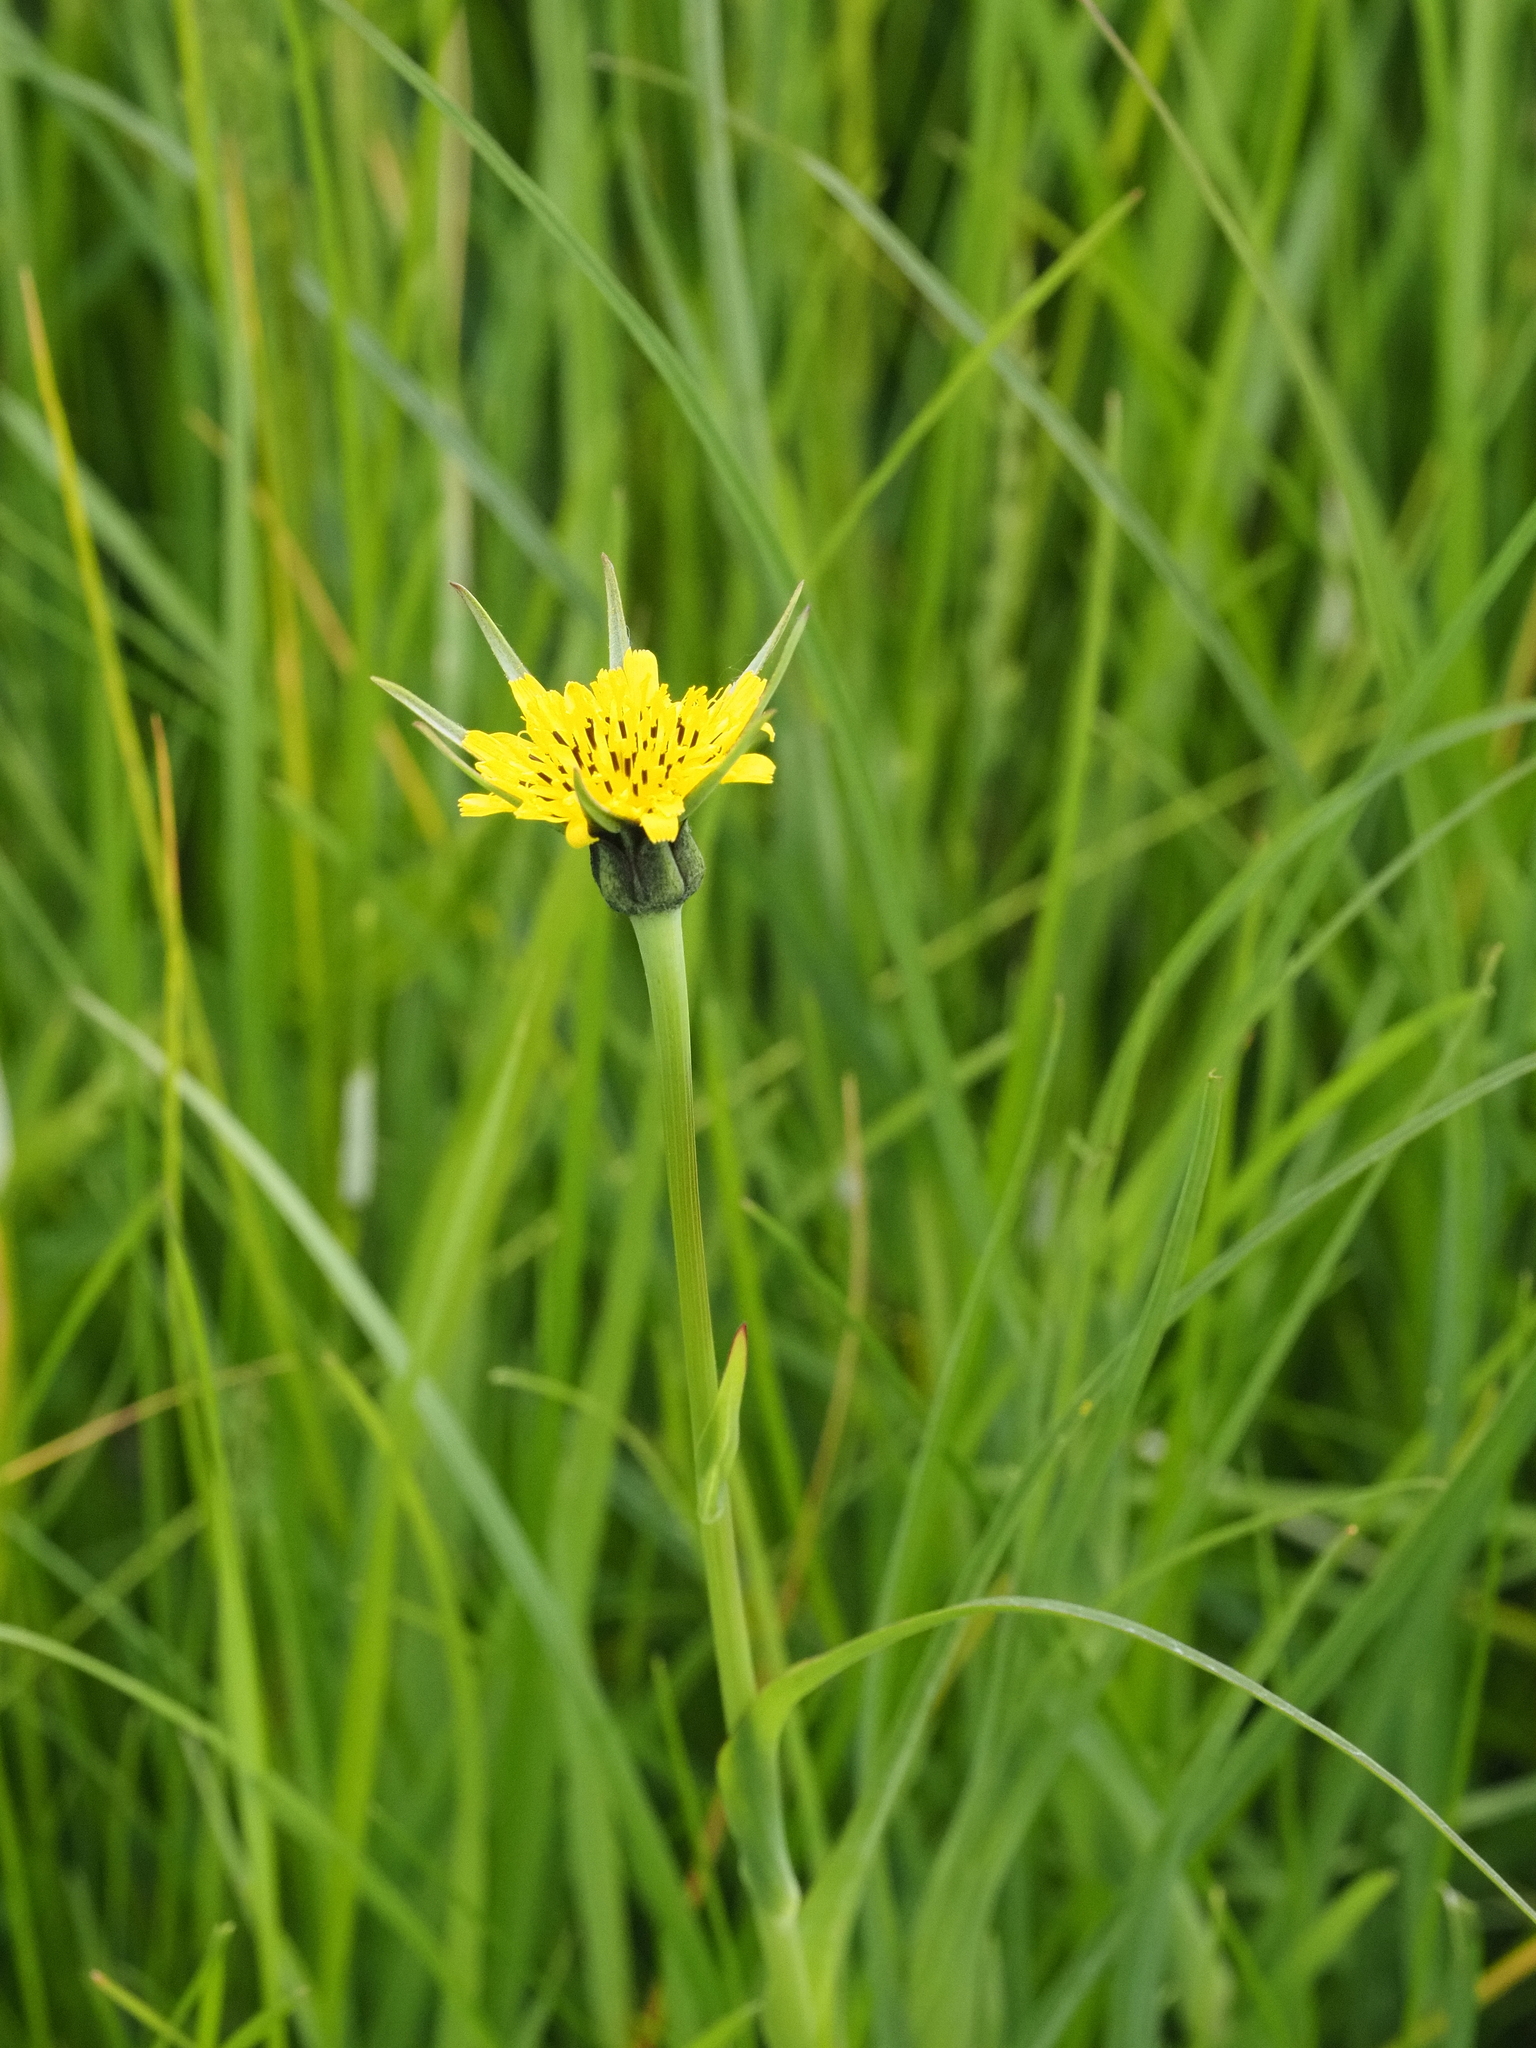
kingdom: Plantae
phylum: Tracheophyta
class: Magnoliopsida
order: Asterales
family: Asteraceae
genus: Tragopogon
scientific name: Tragopogon pratensis
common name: Goat's-beard
